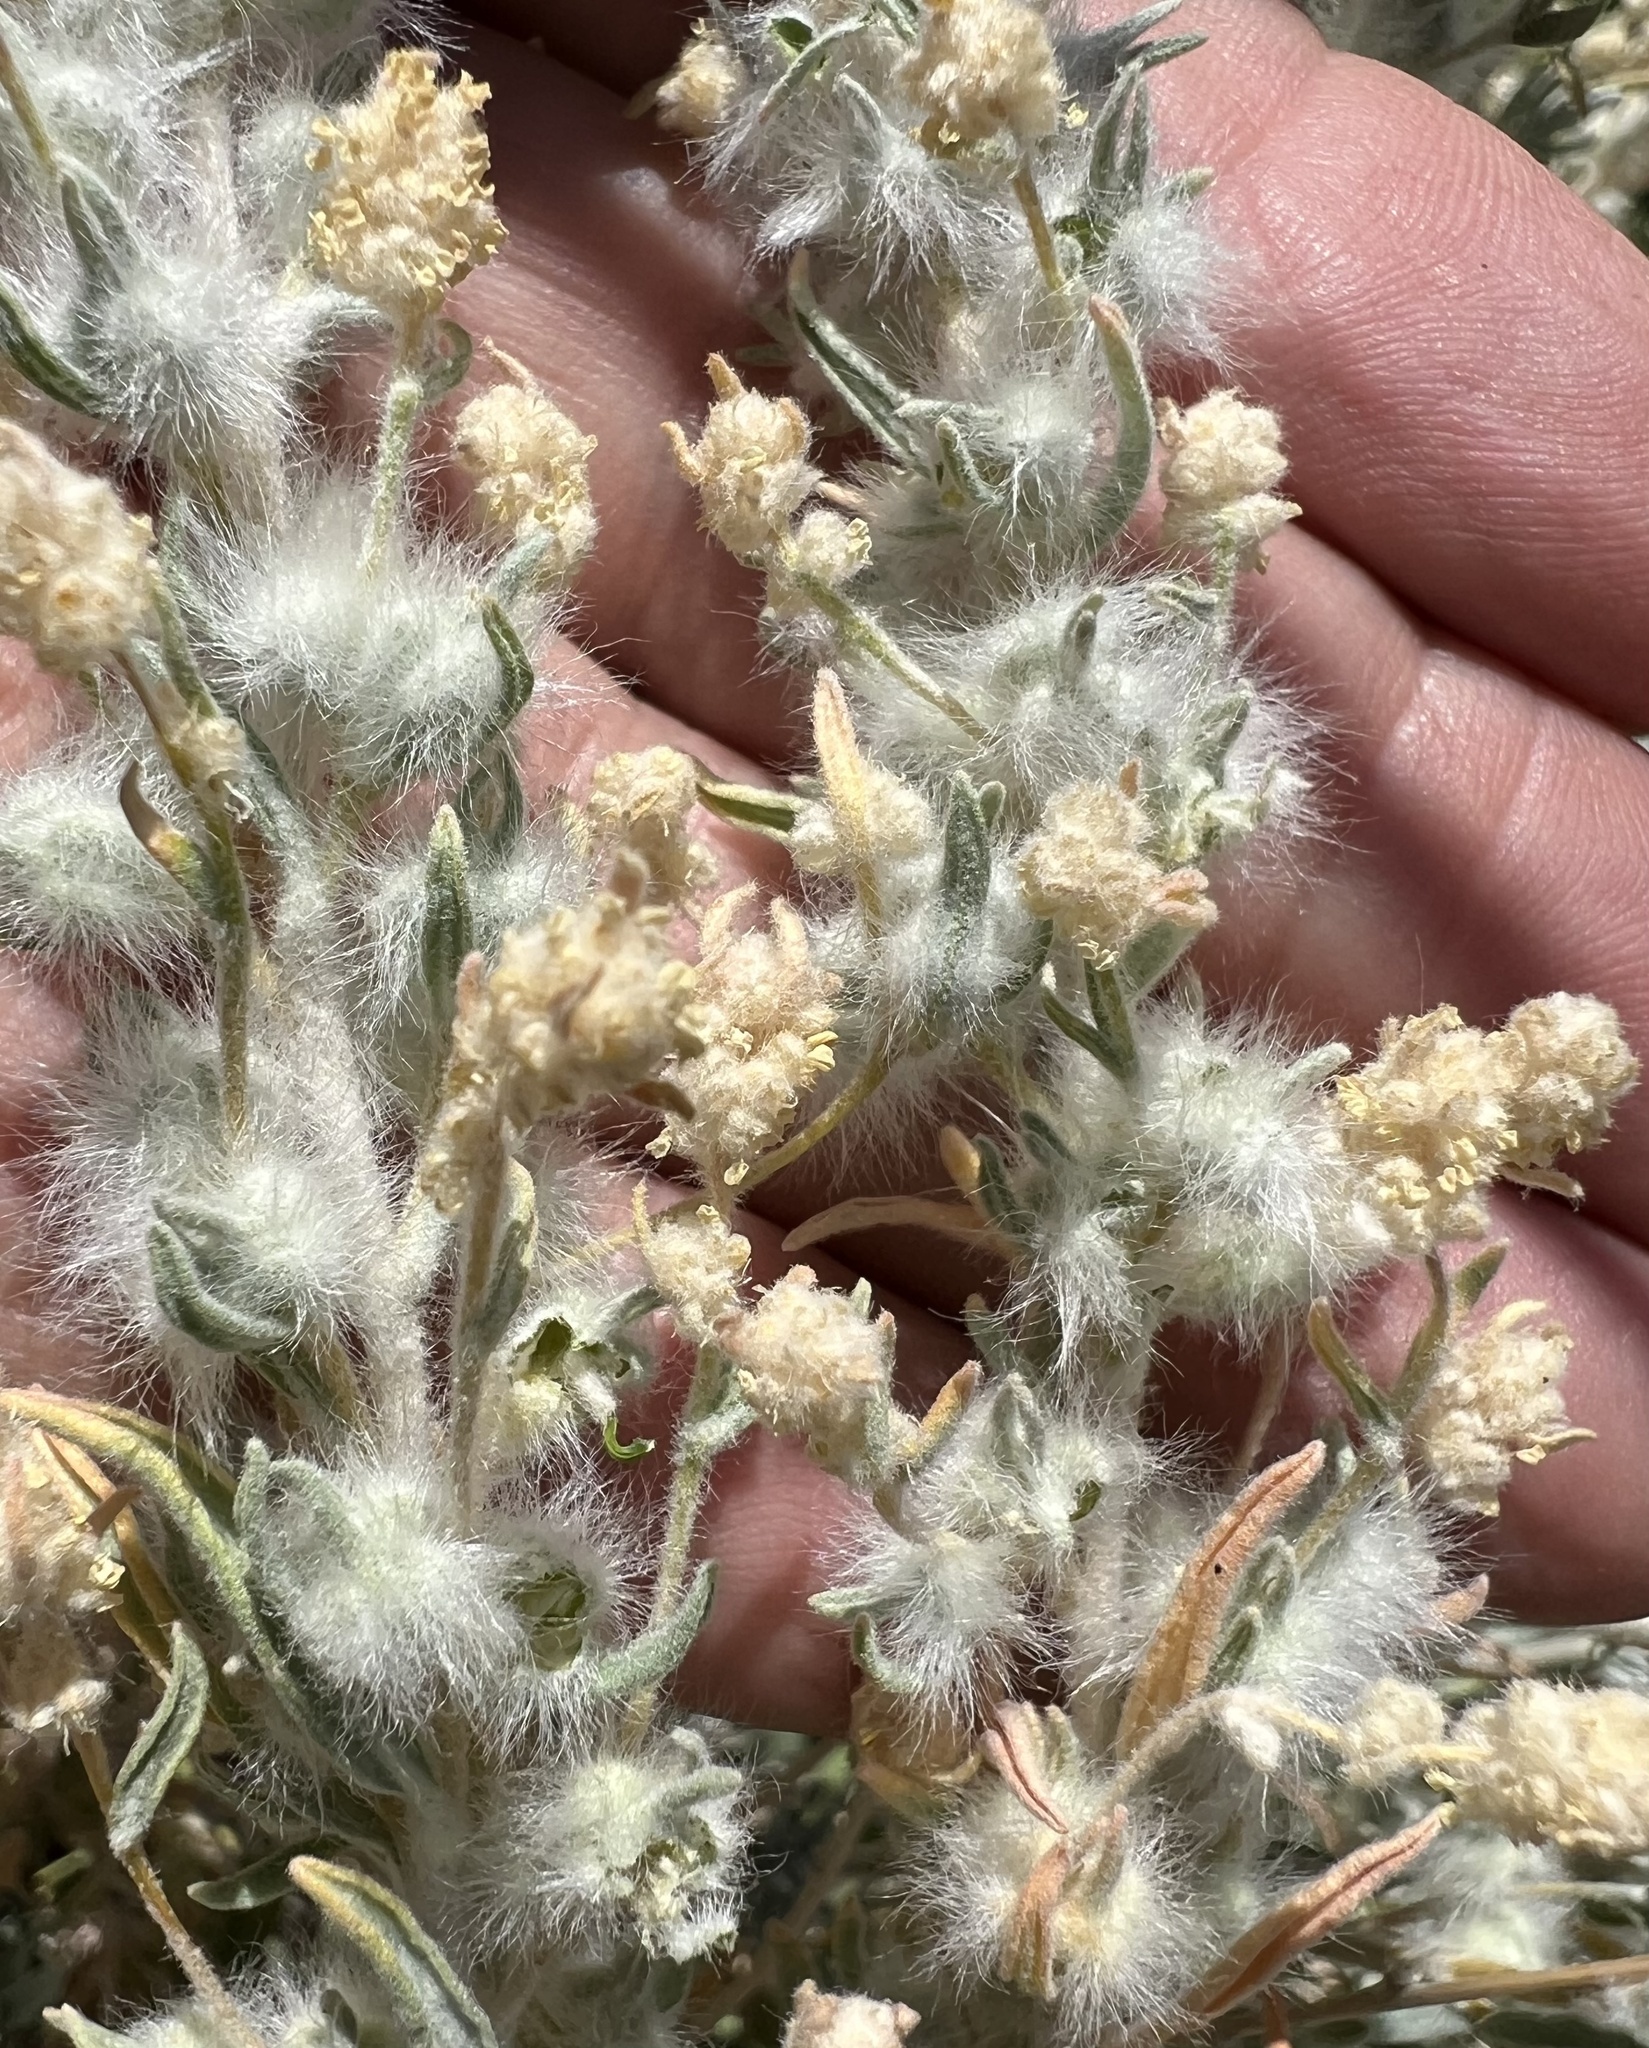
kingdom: Plantae
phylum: Tracheophyta
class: Magnoliopsida
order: Caryophyllales
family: Amaranthaceae
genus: Krascheninnikovia
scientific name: Krascheninnikovia lanata
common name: Winterfat
